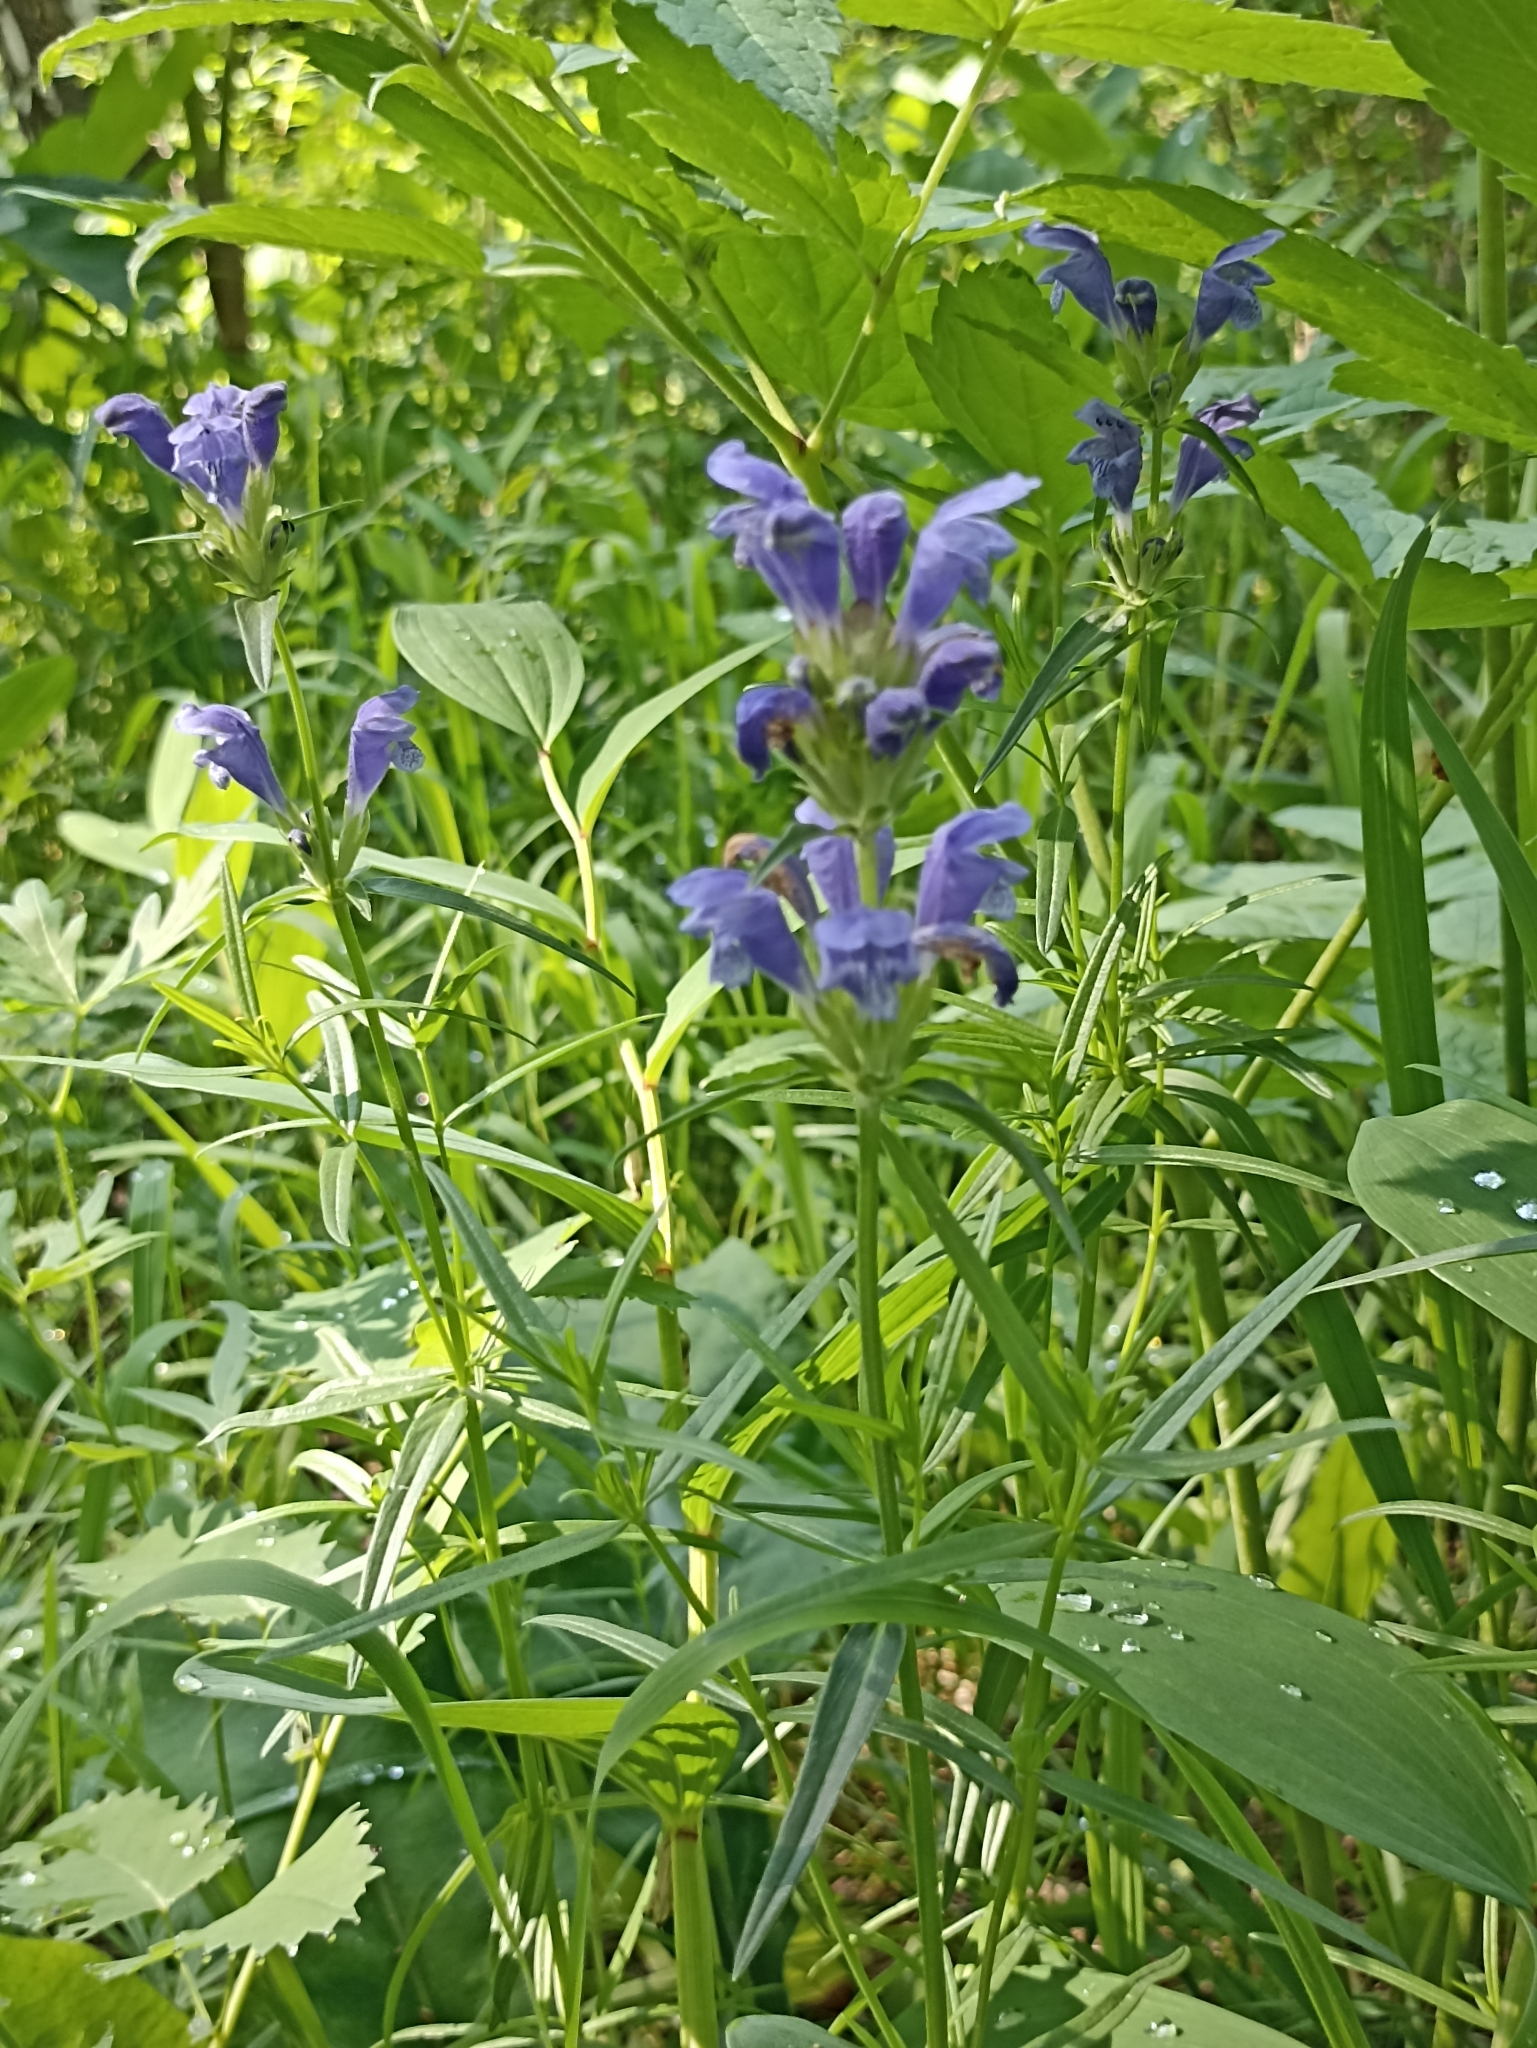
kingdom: Plantae
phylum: Tracheophyta
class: Magnoliopsida
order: Lamiales
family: Lamiaceae
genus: Dracocephalum
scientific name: Dracocephalum ruyschiana
